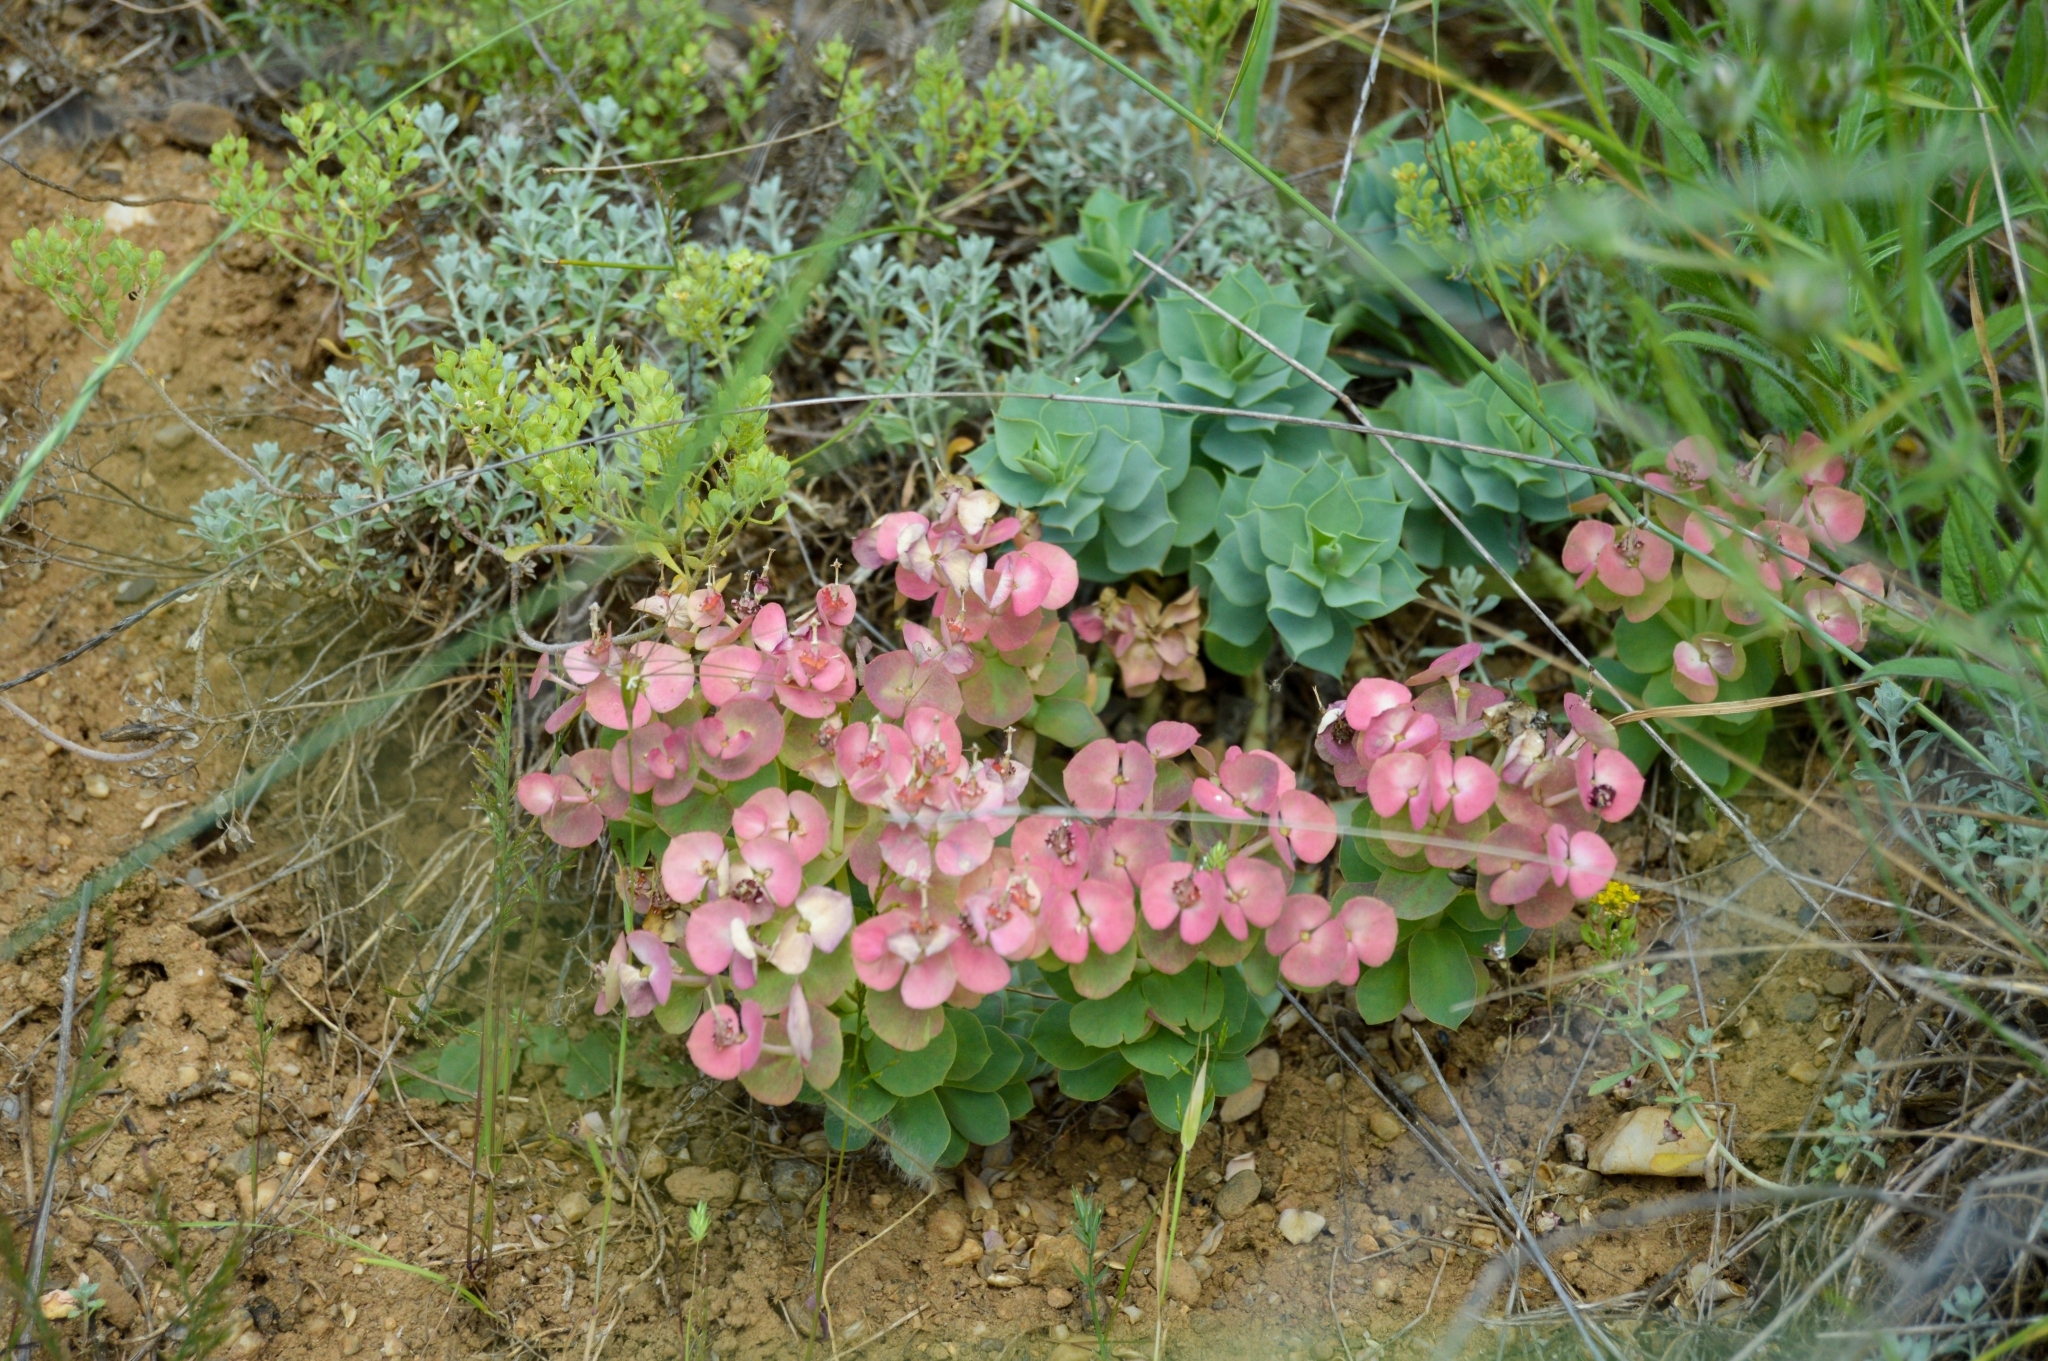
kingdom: Plantae
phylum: Tracheophyta
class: Magnoliopsida
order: Malpighiales
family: Euphorbiaceae
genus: Euphorbia
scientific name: Euphorbia myrsinites
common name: Myrtle spurge
